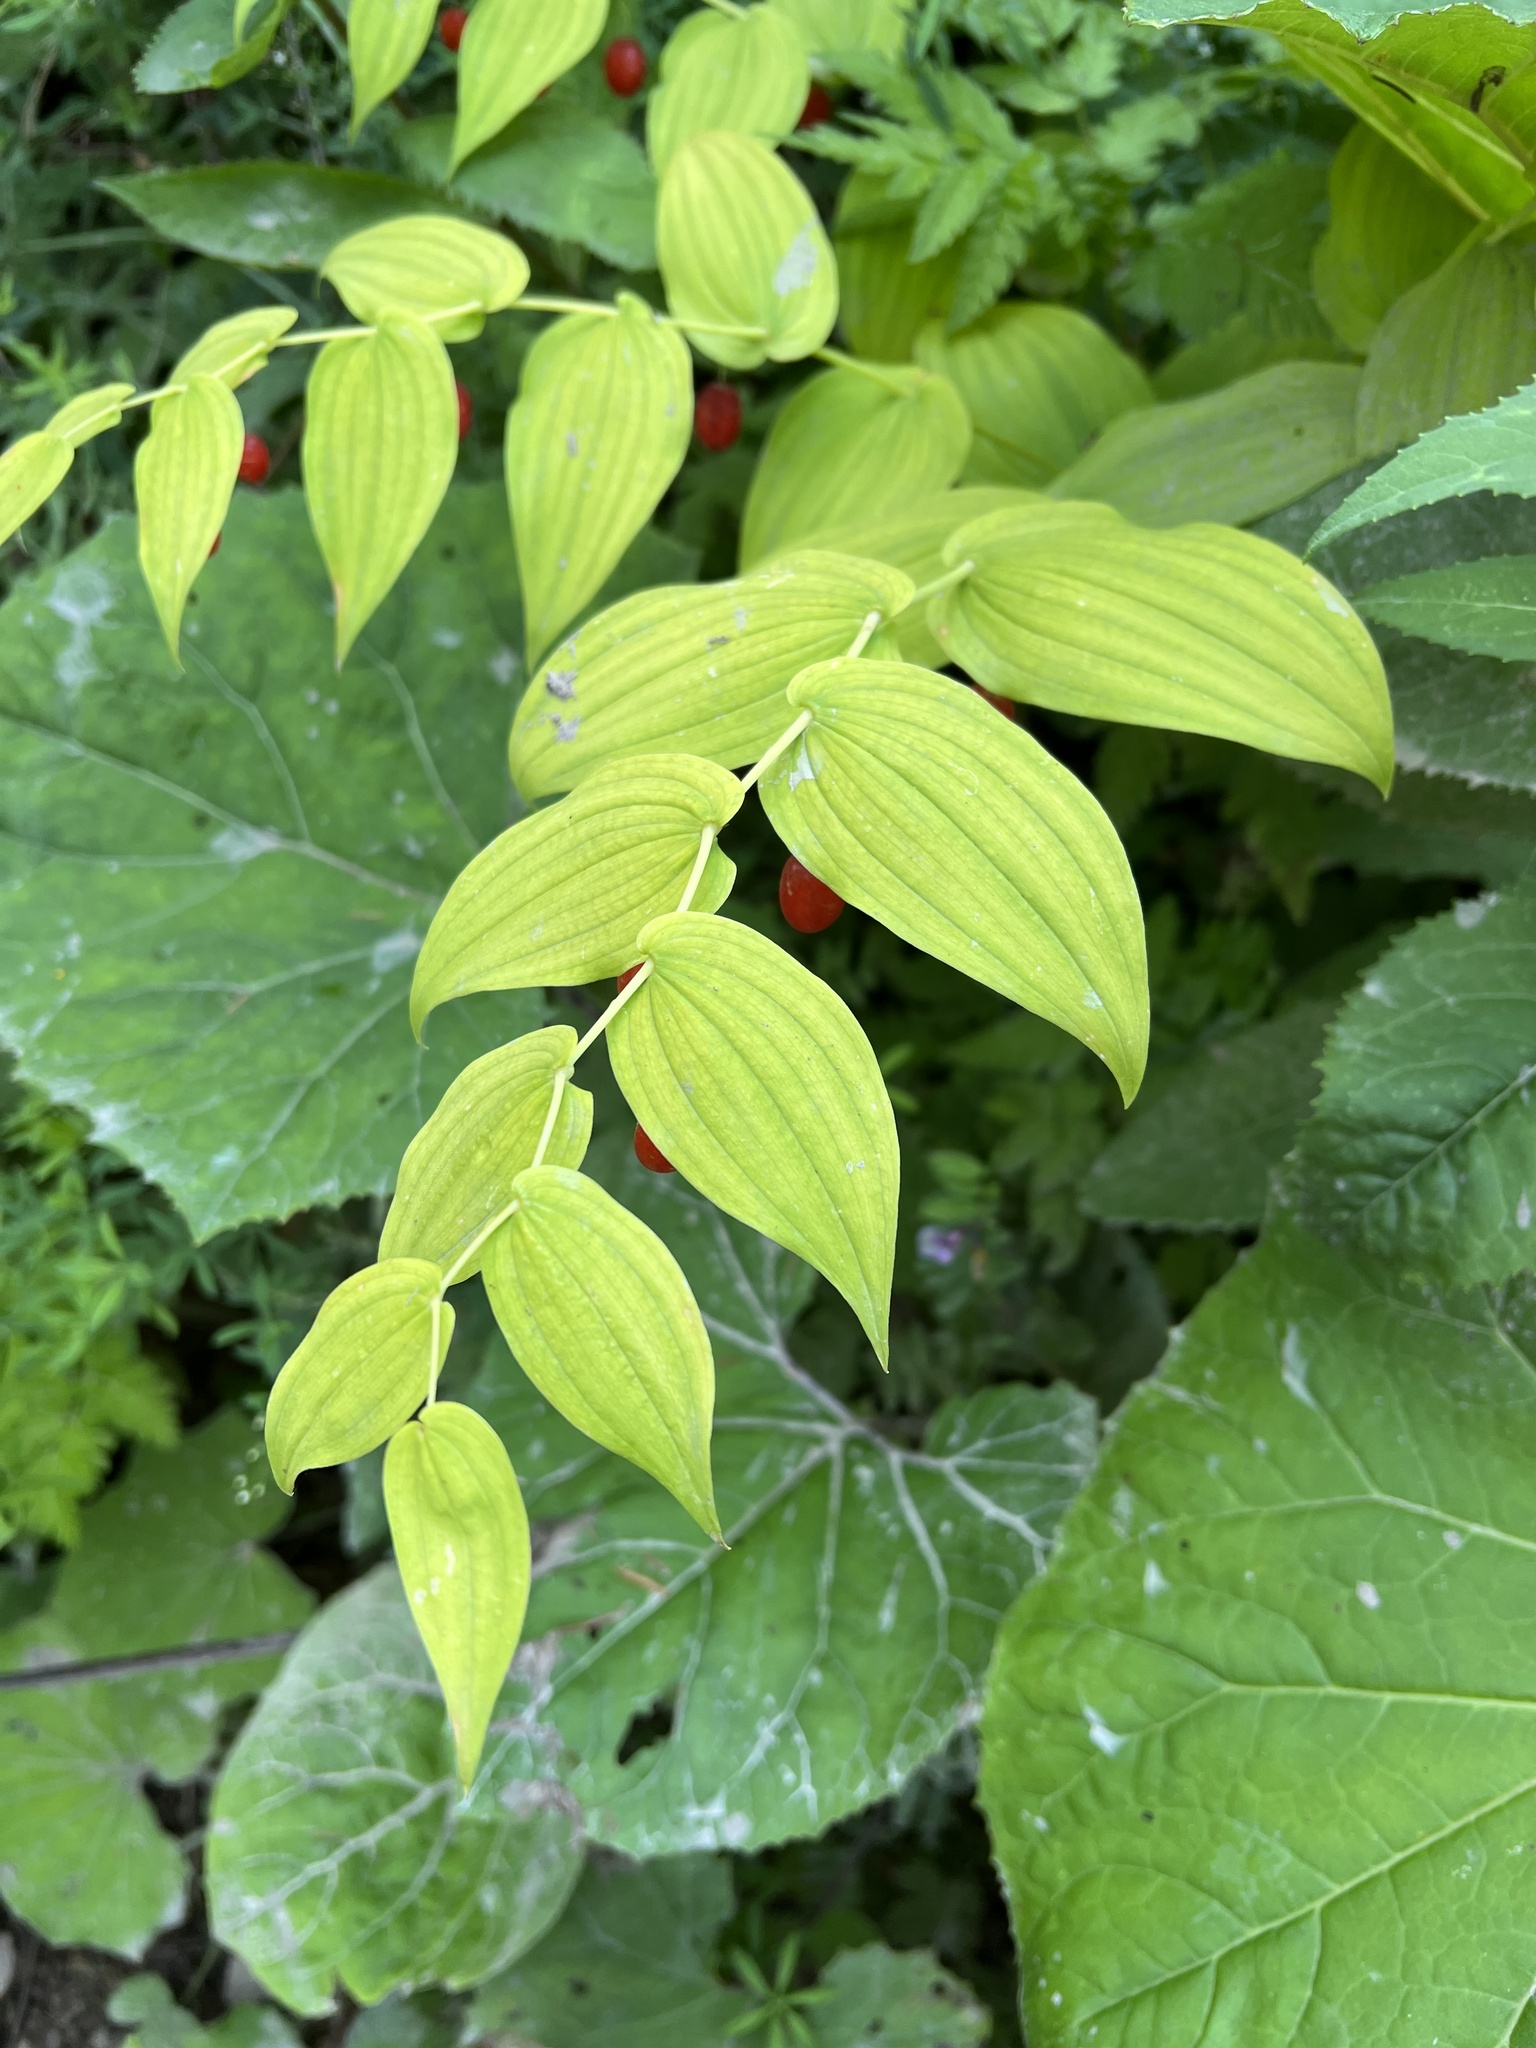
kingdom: Plantae
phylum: Tracheophyta
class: Liliopsida
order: Liliales
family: Liliaceae
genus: Streptopus
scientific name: Streptopus amplexifolius
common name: Clasp twisted stalk
